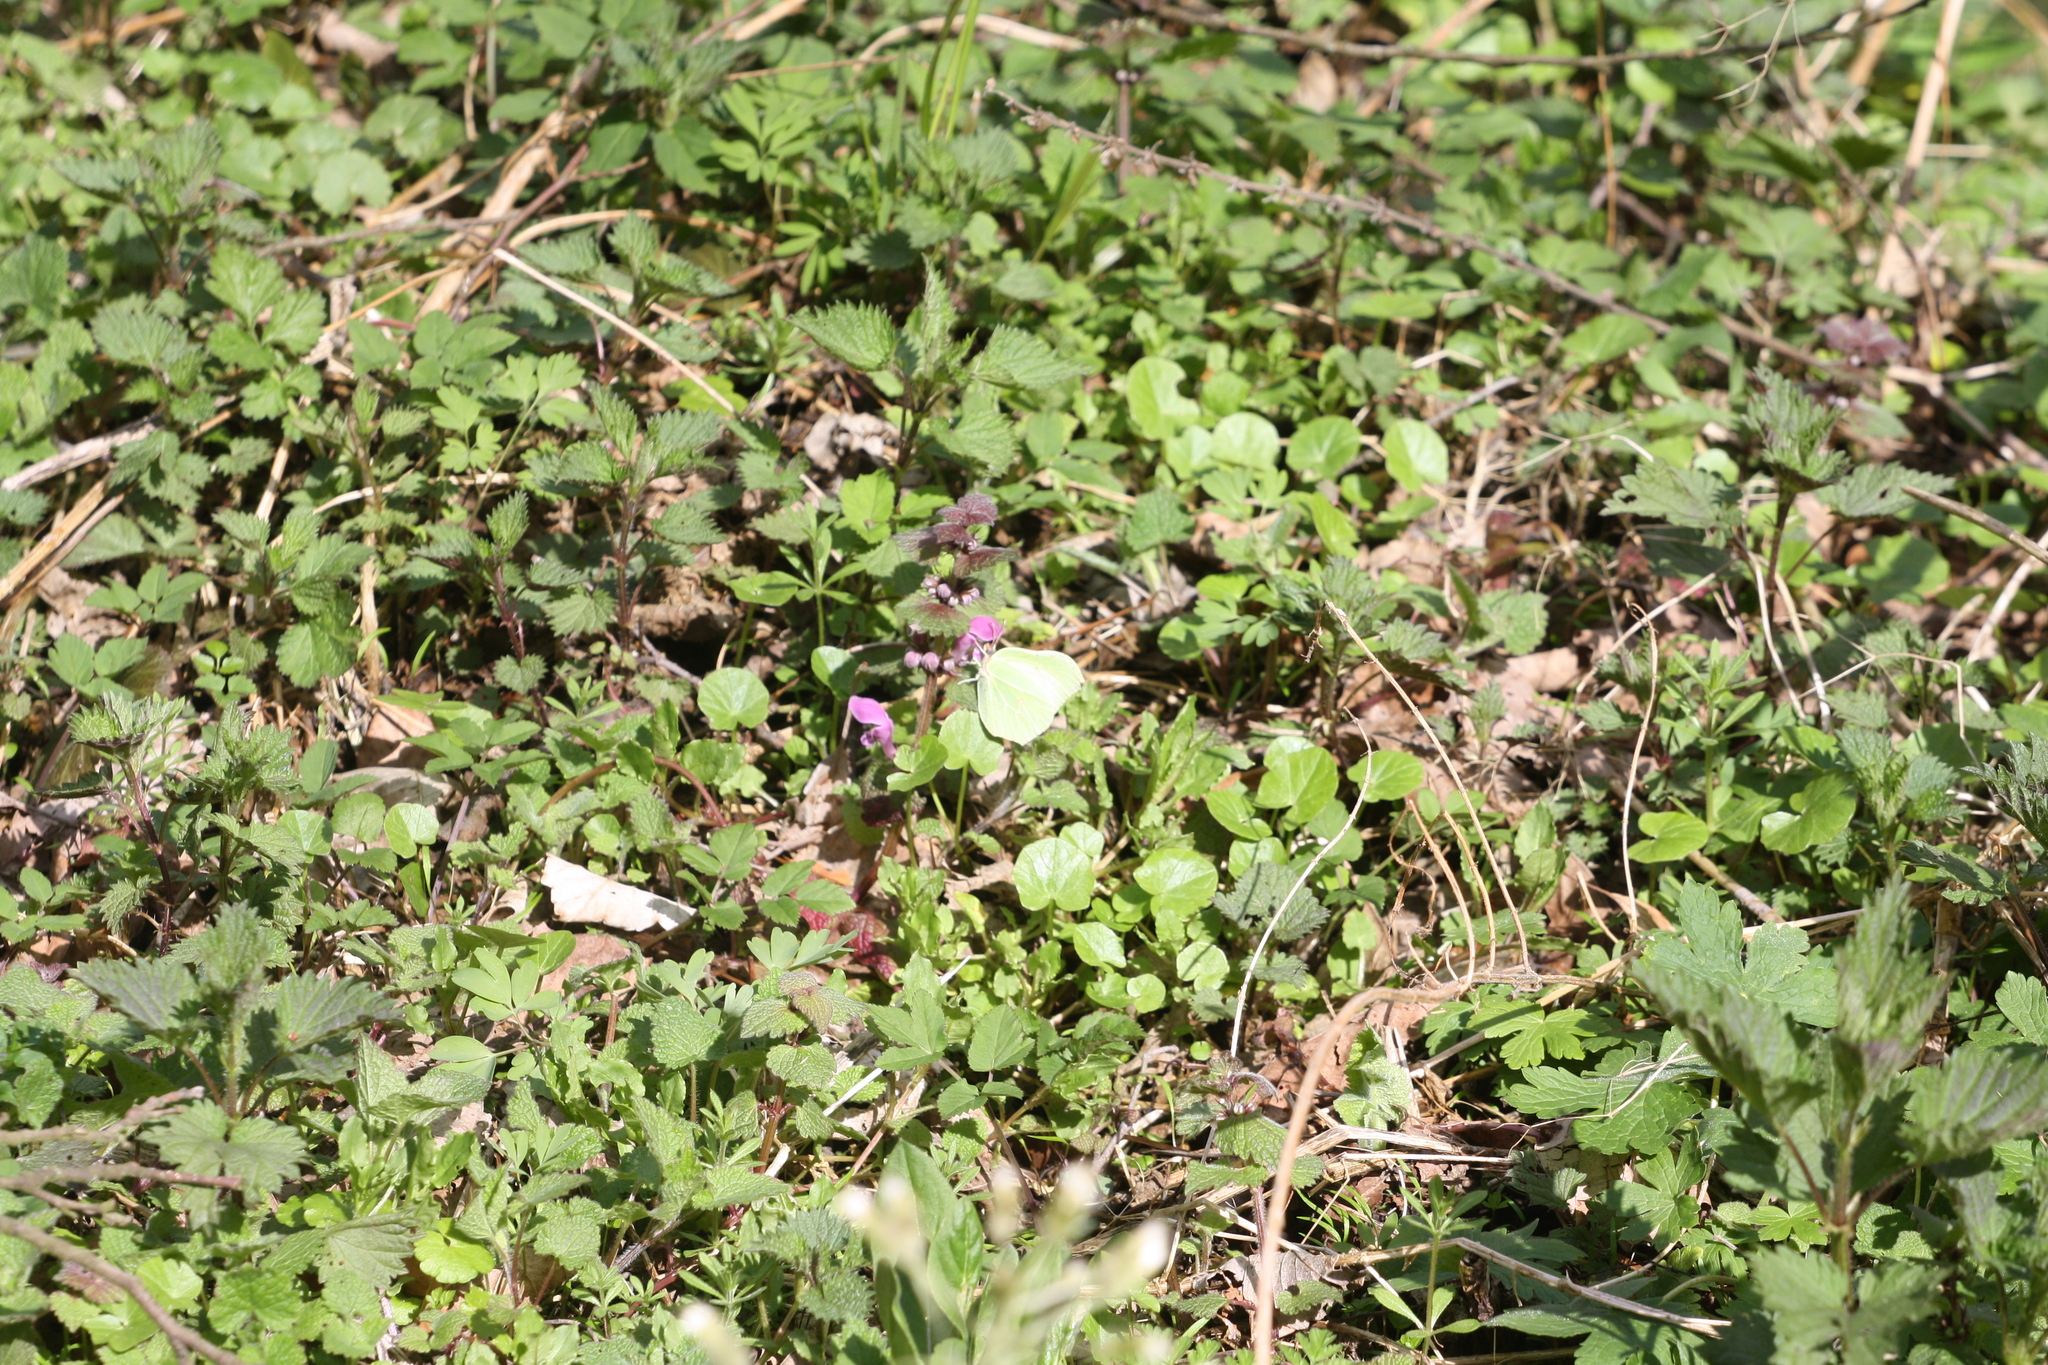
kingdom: Animalia
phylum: Arthropoda
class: Insecta
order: Lepidoptera
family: Pieridae
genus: Gonepteryx
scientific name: Gonepteryx rhamni
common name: Brimstone
